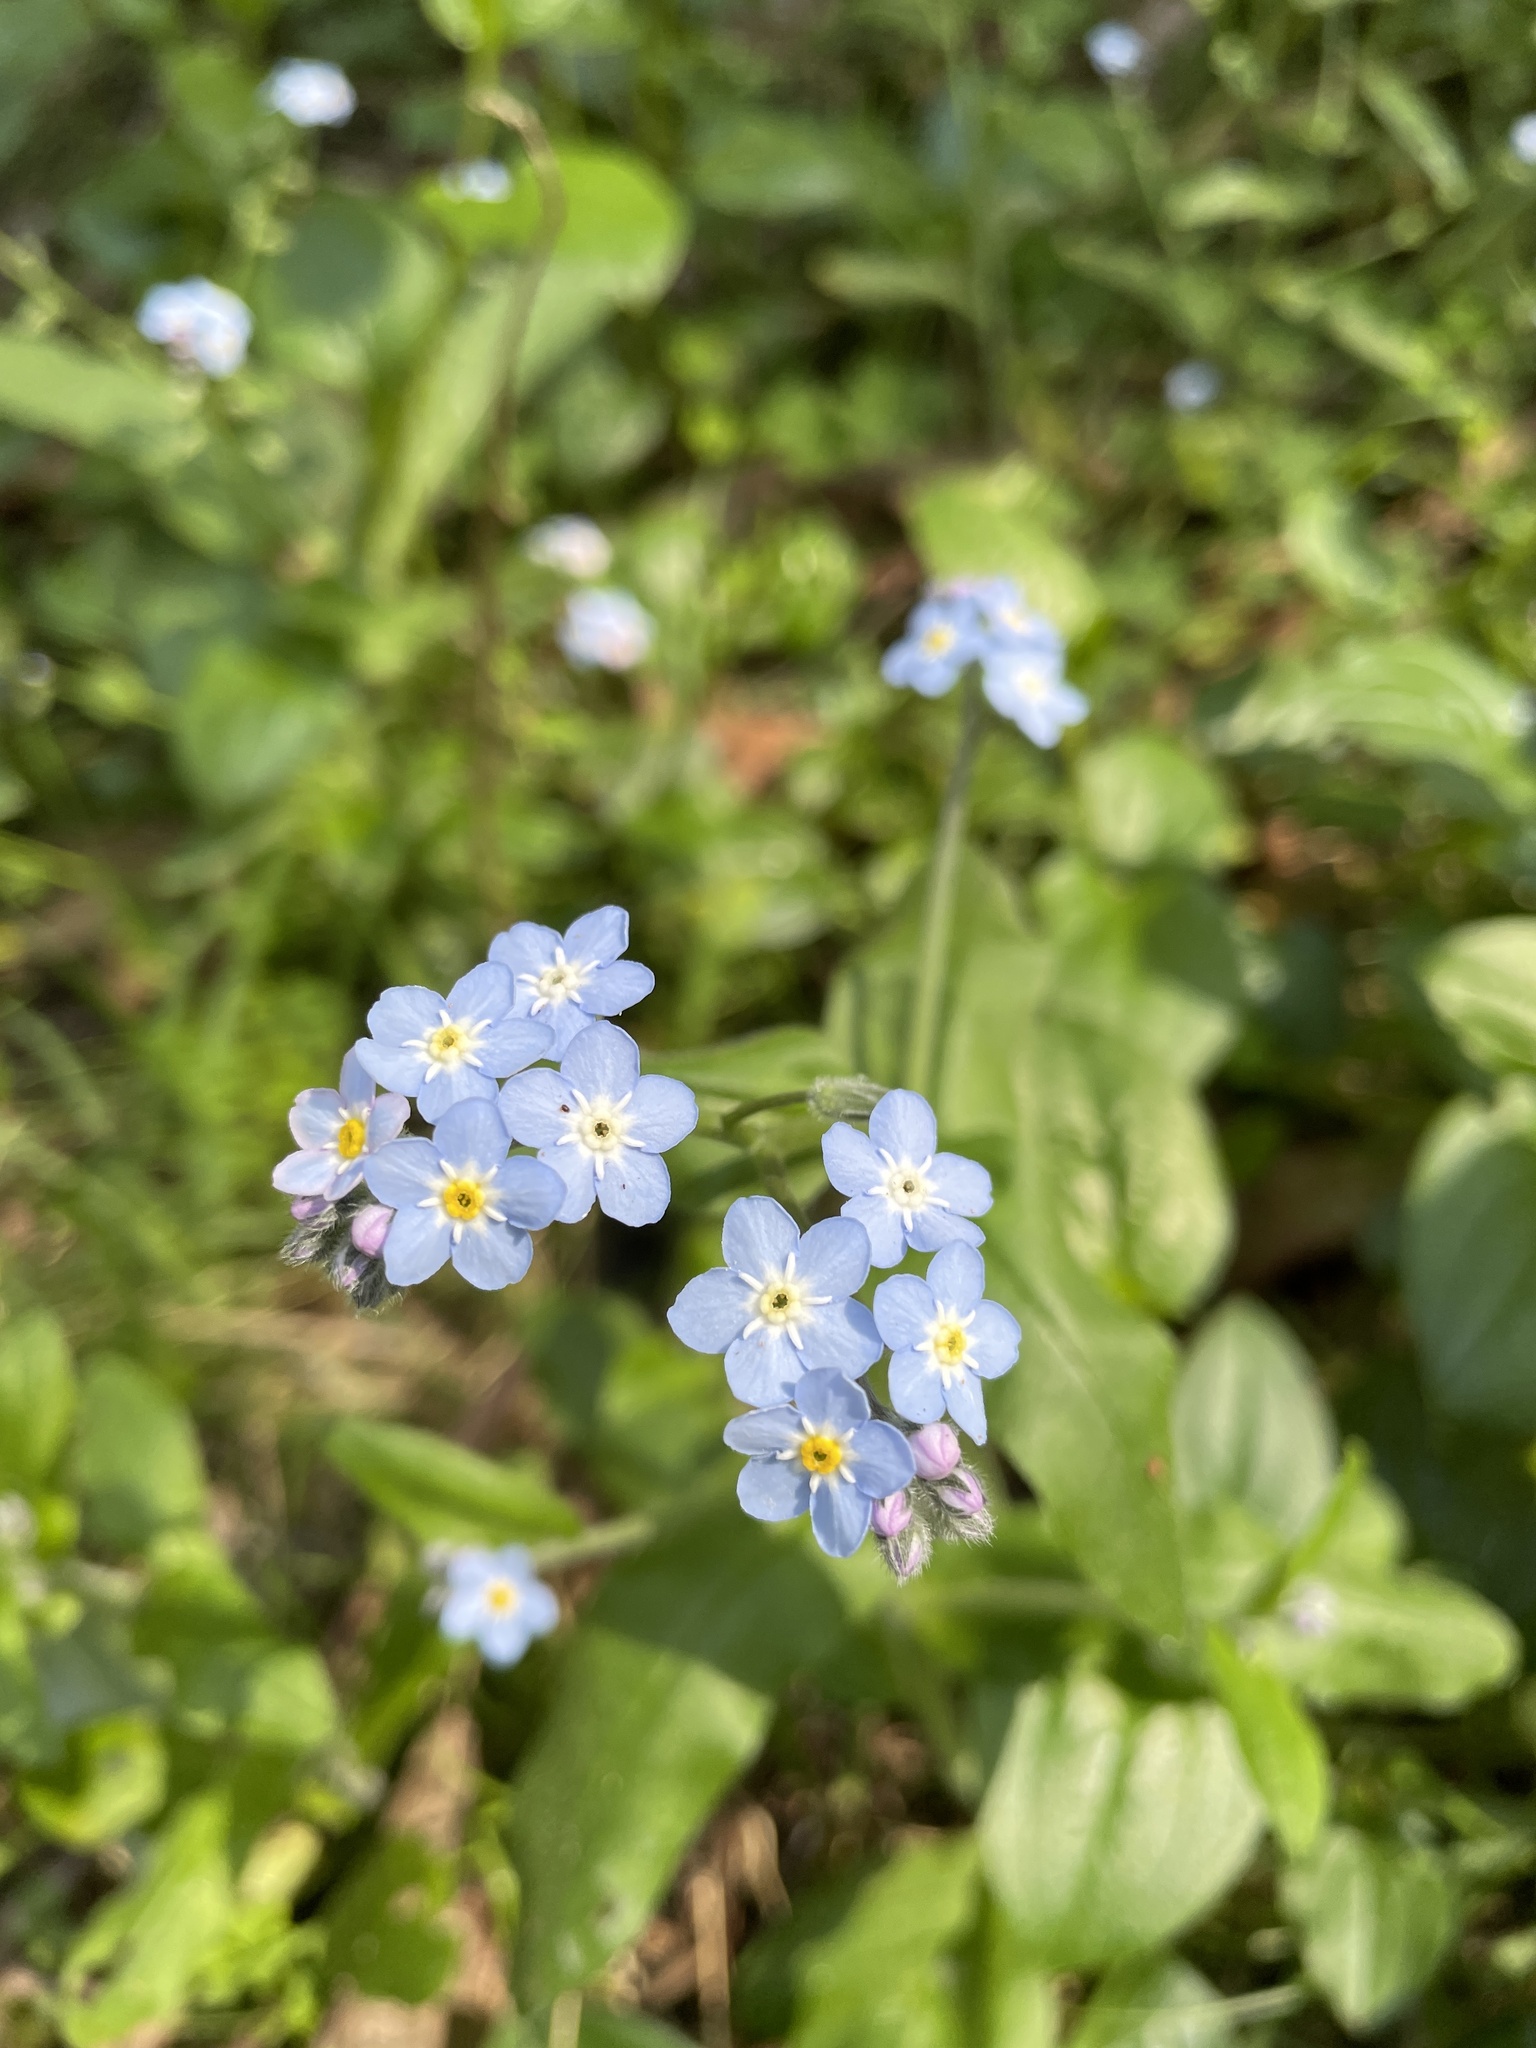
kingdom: Plantae
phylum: Tracheophyta
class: Magnoliopsida
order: Boraginales
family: Boraginaceae
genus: Myosotis
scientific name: Myosotis sylvatica
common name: Wood forget-me-not
